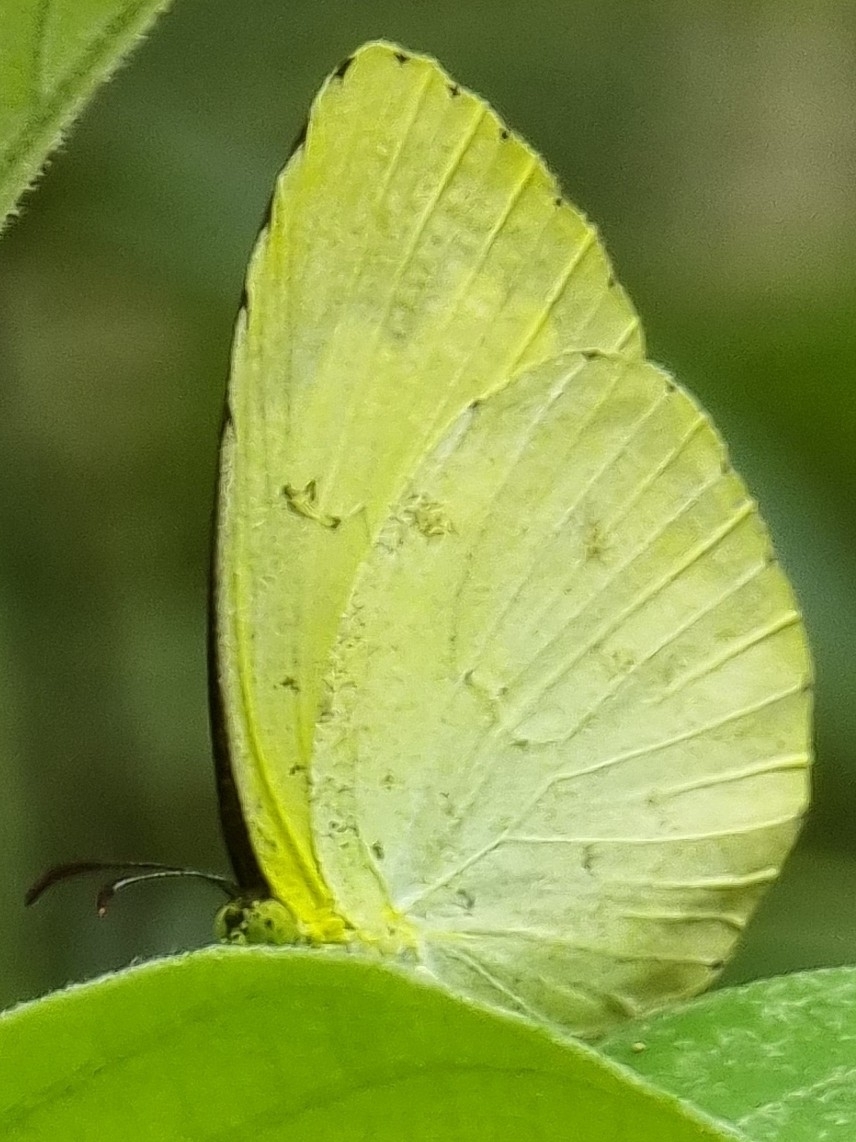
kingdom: Animalia
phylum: Arthropoda
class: Insecta
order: Lepidoptera
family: Pieridae
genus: Eurema
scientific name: Eurema hecabe
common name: Pale grass yellow
